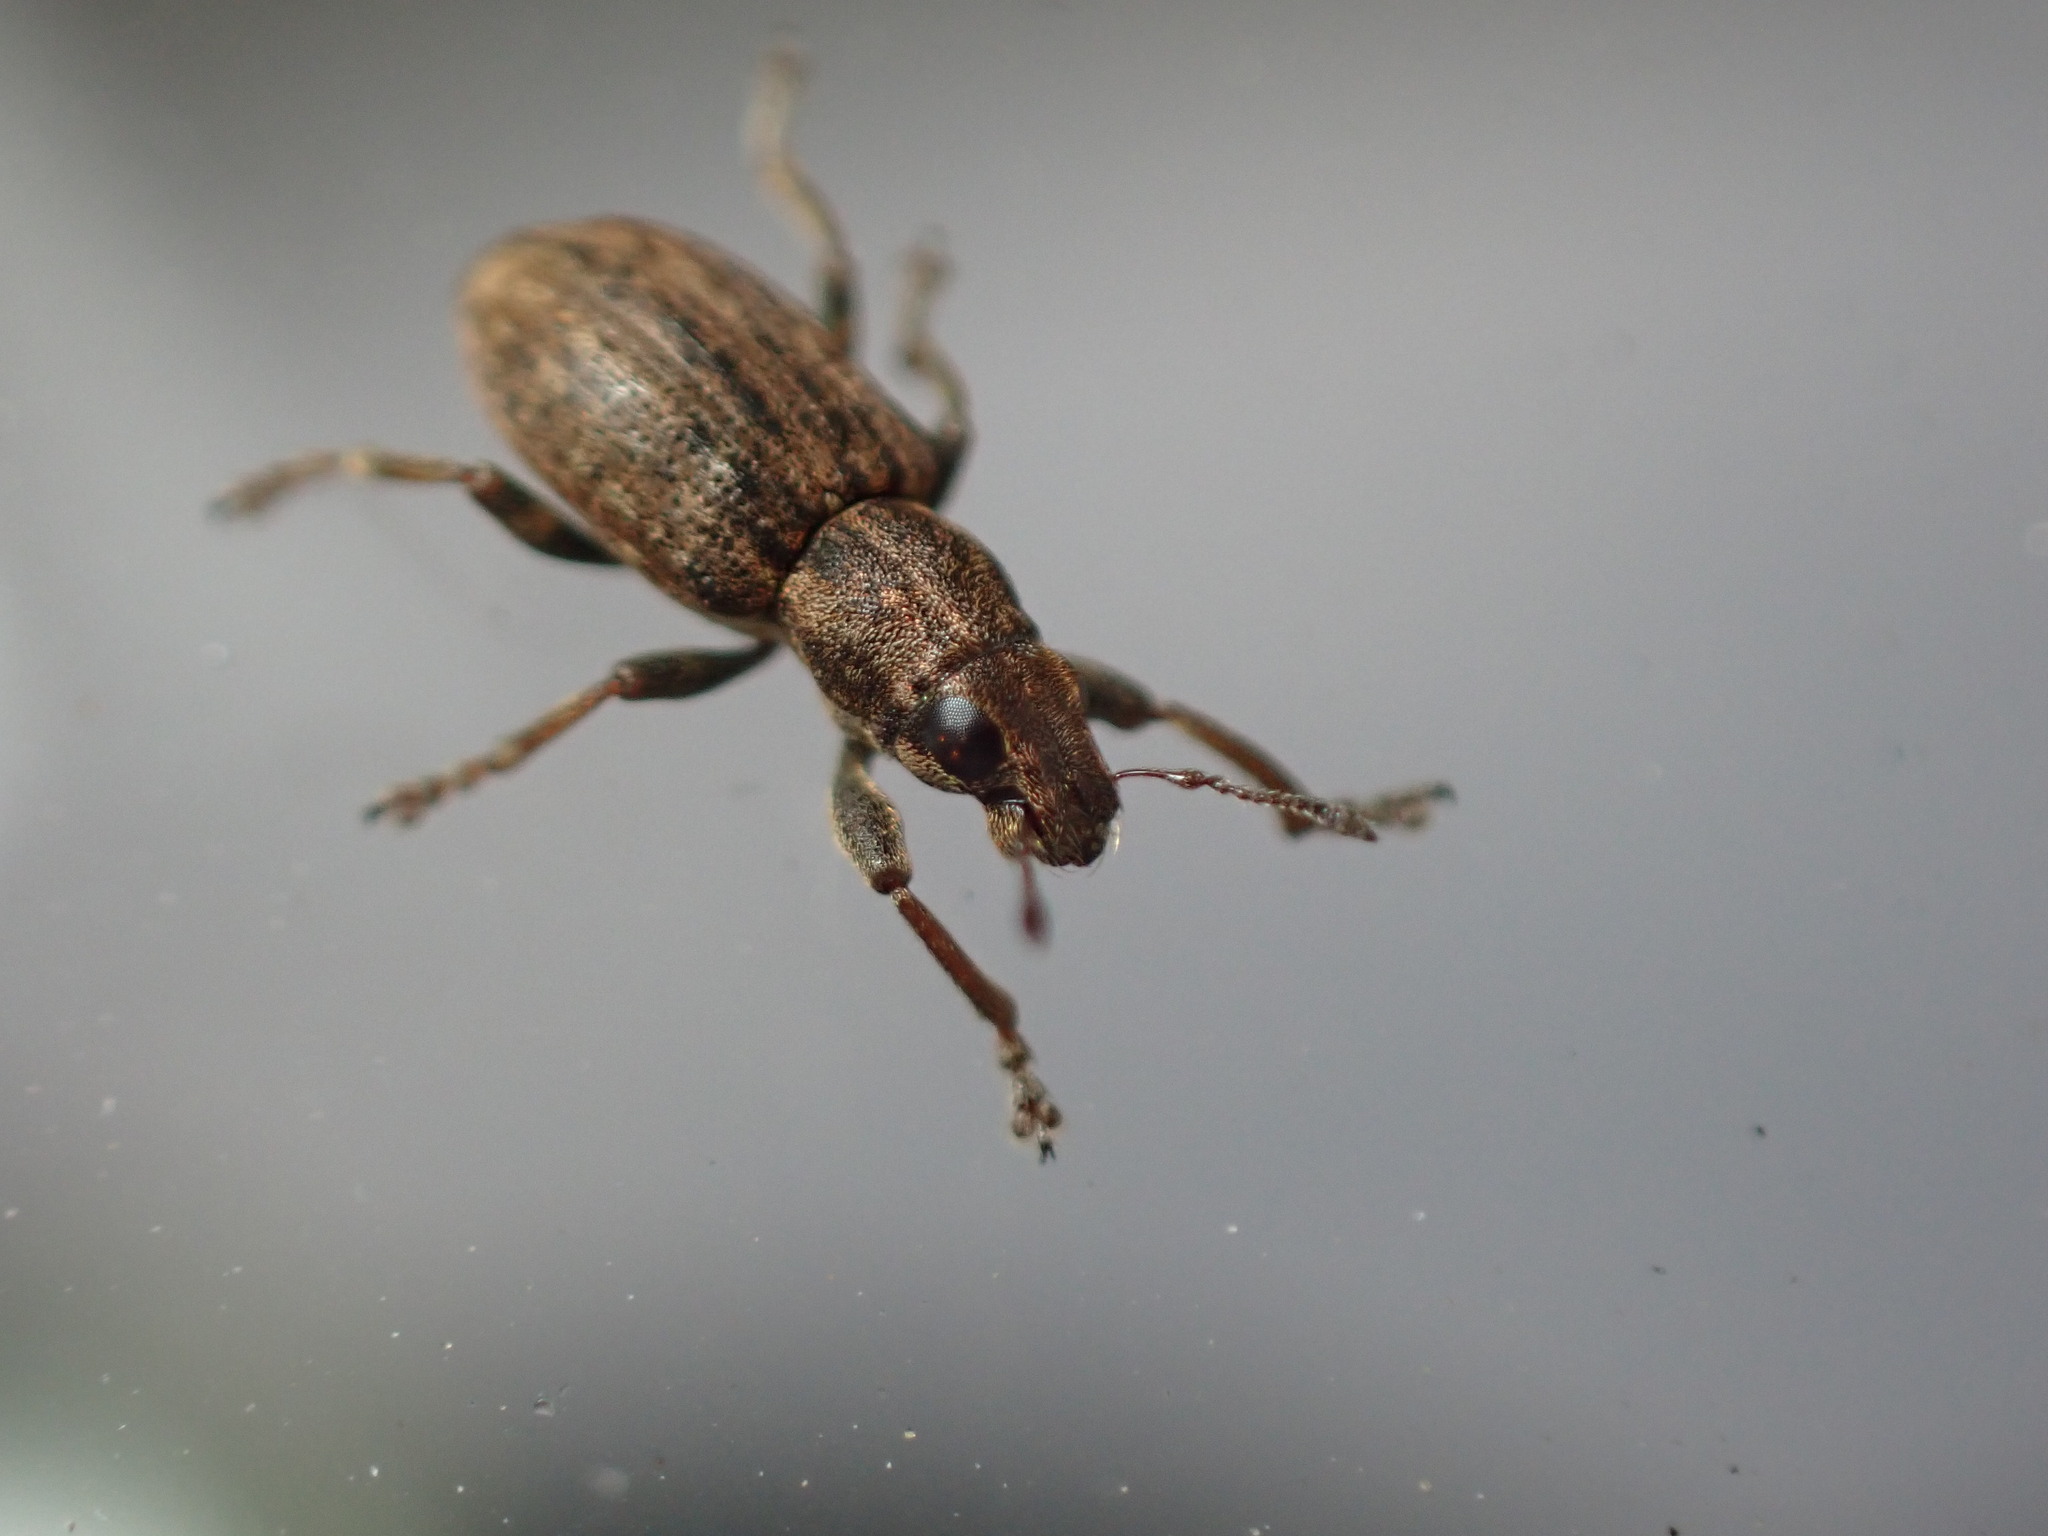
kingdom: Animalia
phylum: Arthropoda
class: Insecta
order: Coleoptera
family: Curculionidae
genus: Sitona
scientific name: Sitona obsoletus
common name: Weevil
